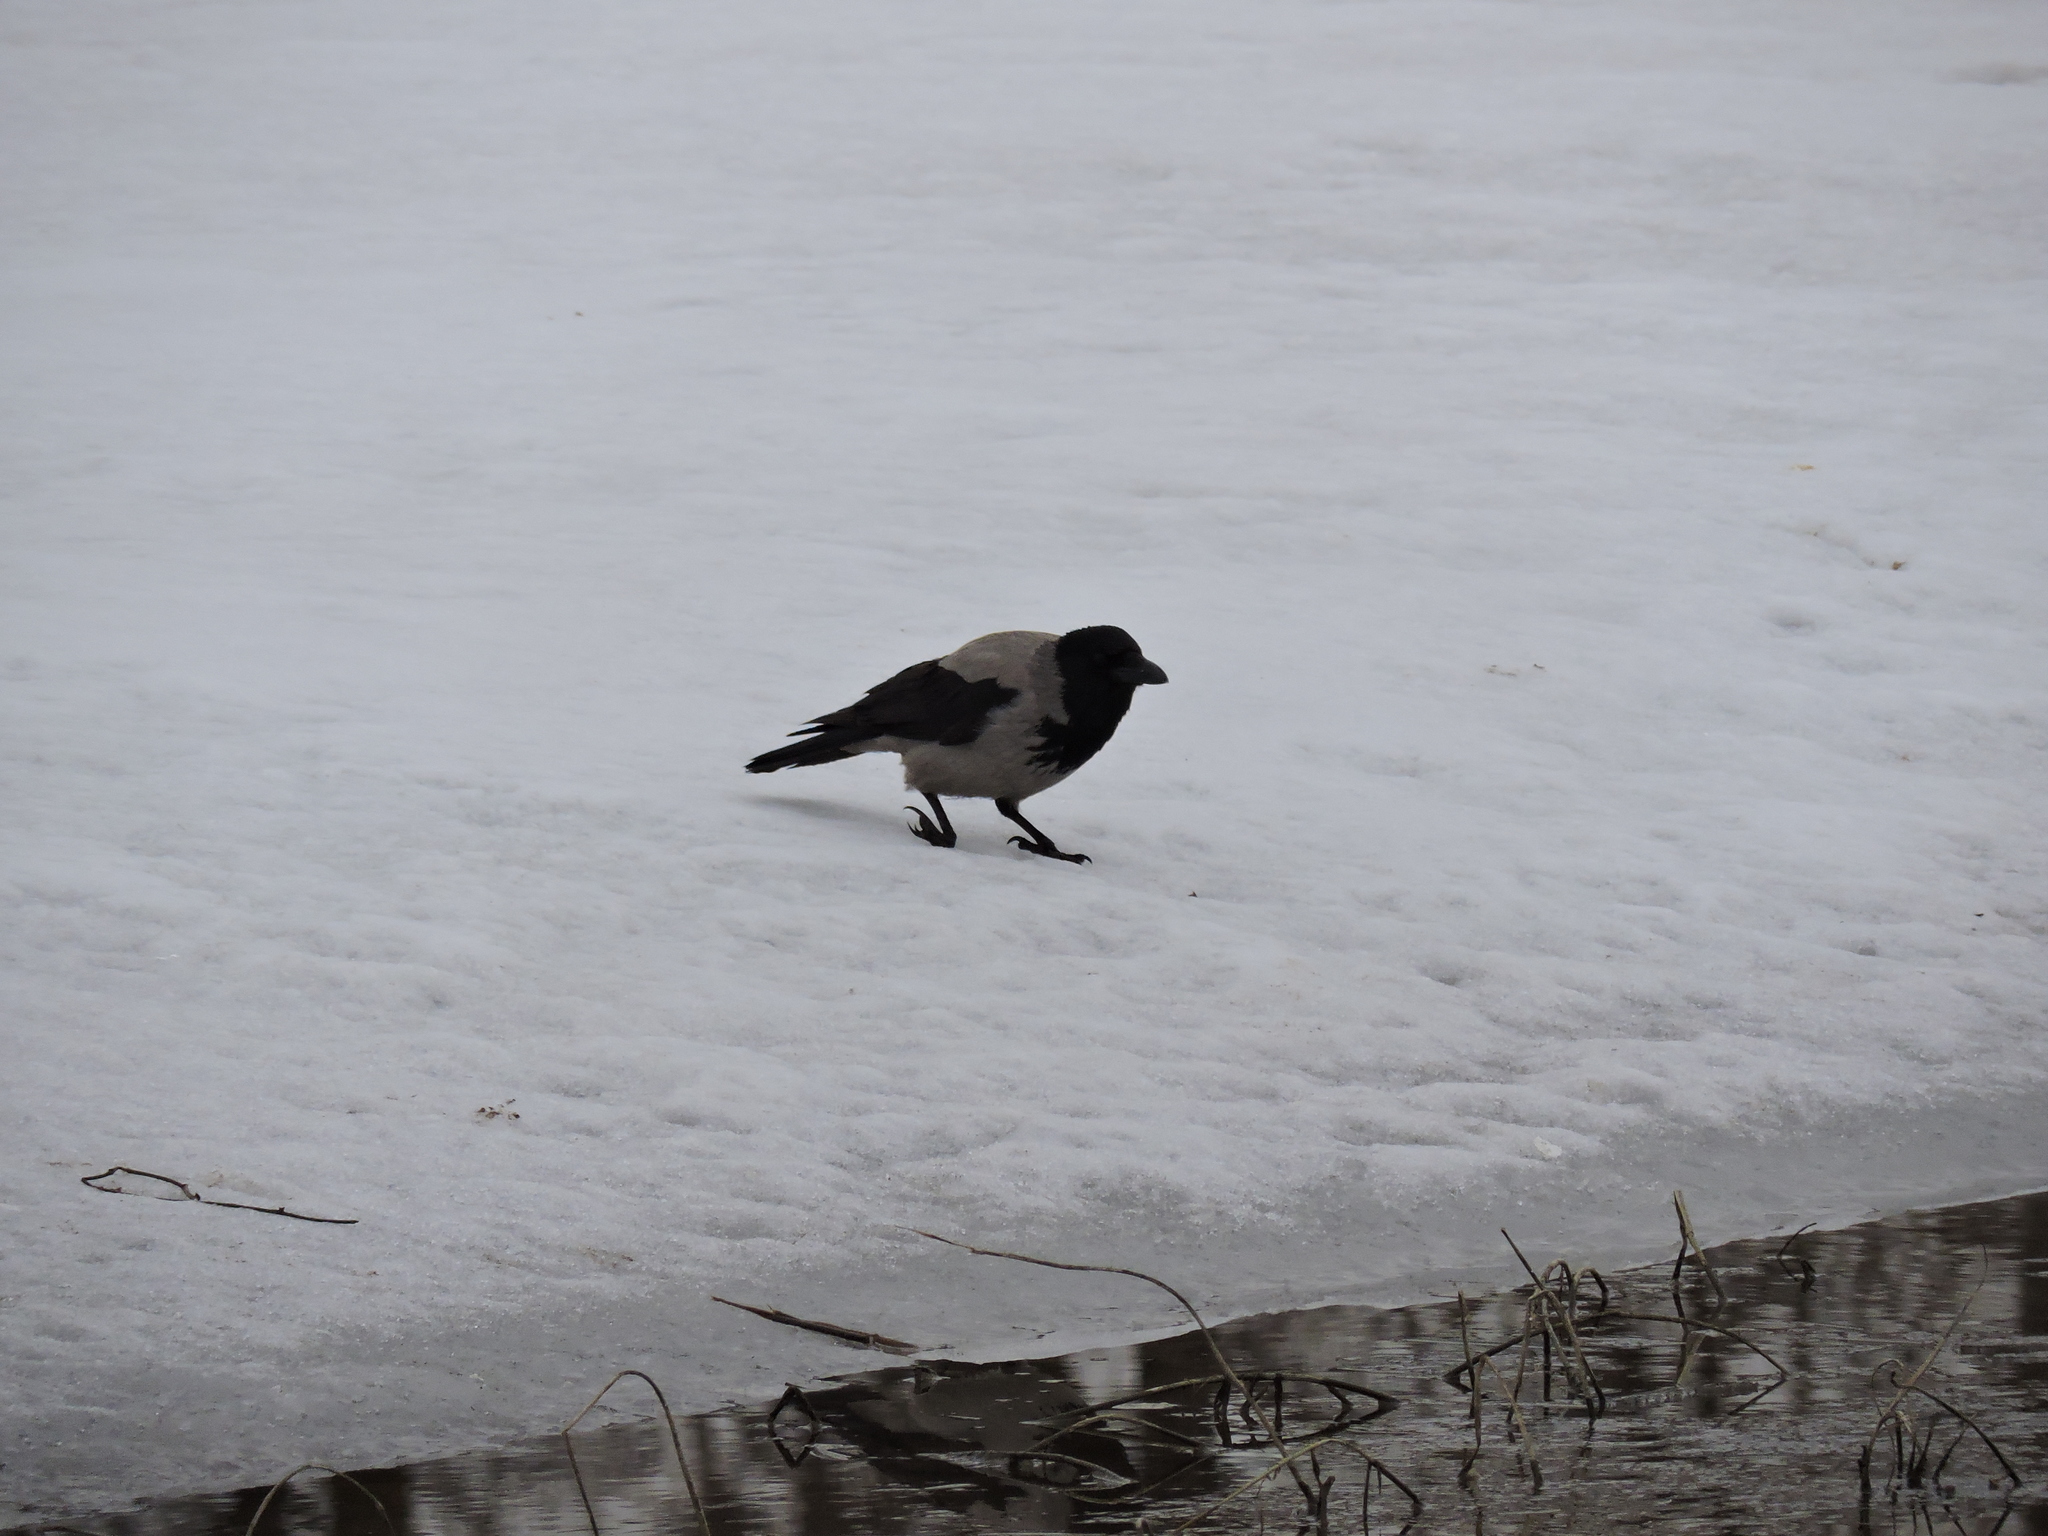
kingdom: Animalia
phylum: Chordata
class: Aves
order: Passeriformes
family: Corvidae
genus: Corvus
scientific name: Corvus cornix
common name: Hooded crow
